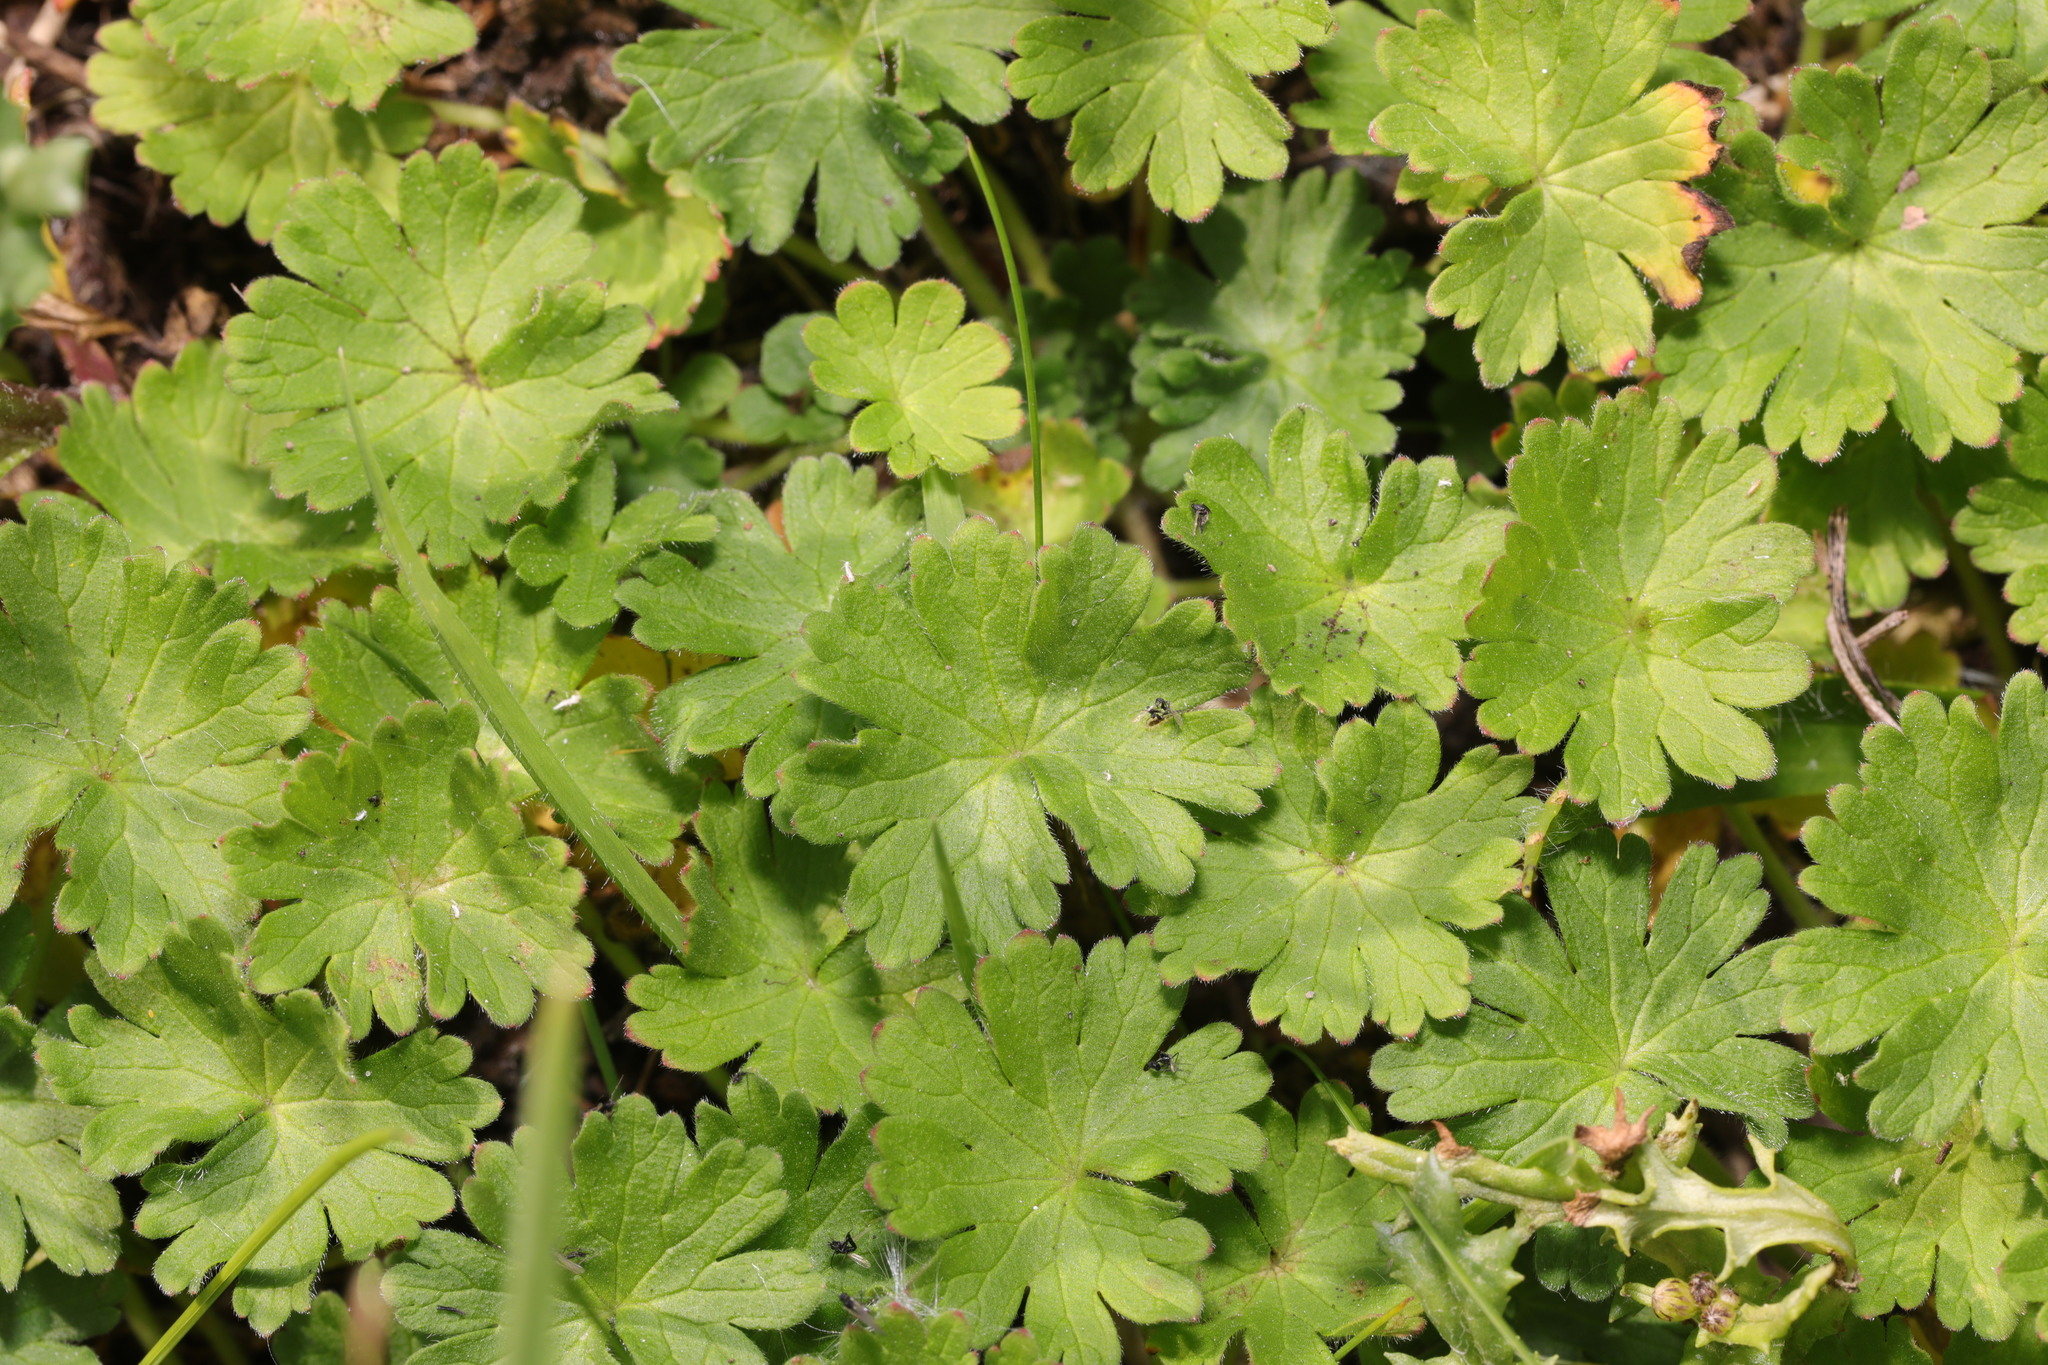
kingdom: Plantae
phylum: Tracheophyta
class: Magnoliopsida
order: Geraniales
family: Geraniaceae
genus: Geranium
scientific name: Geranium molle
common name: Dove's-foot crane's-bill
